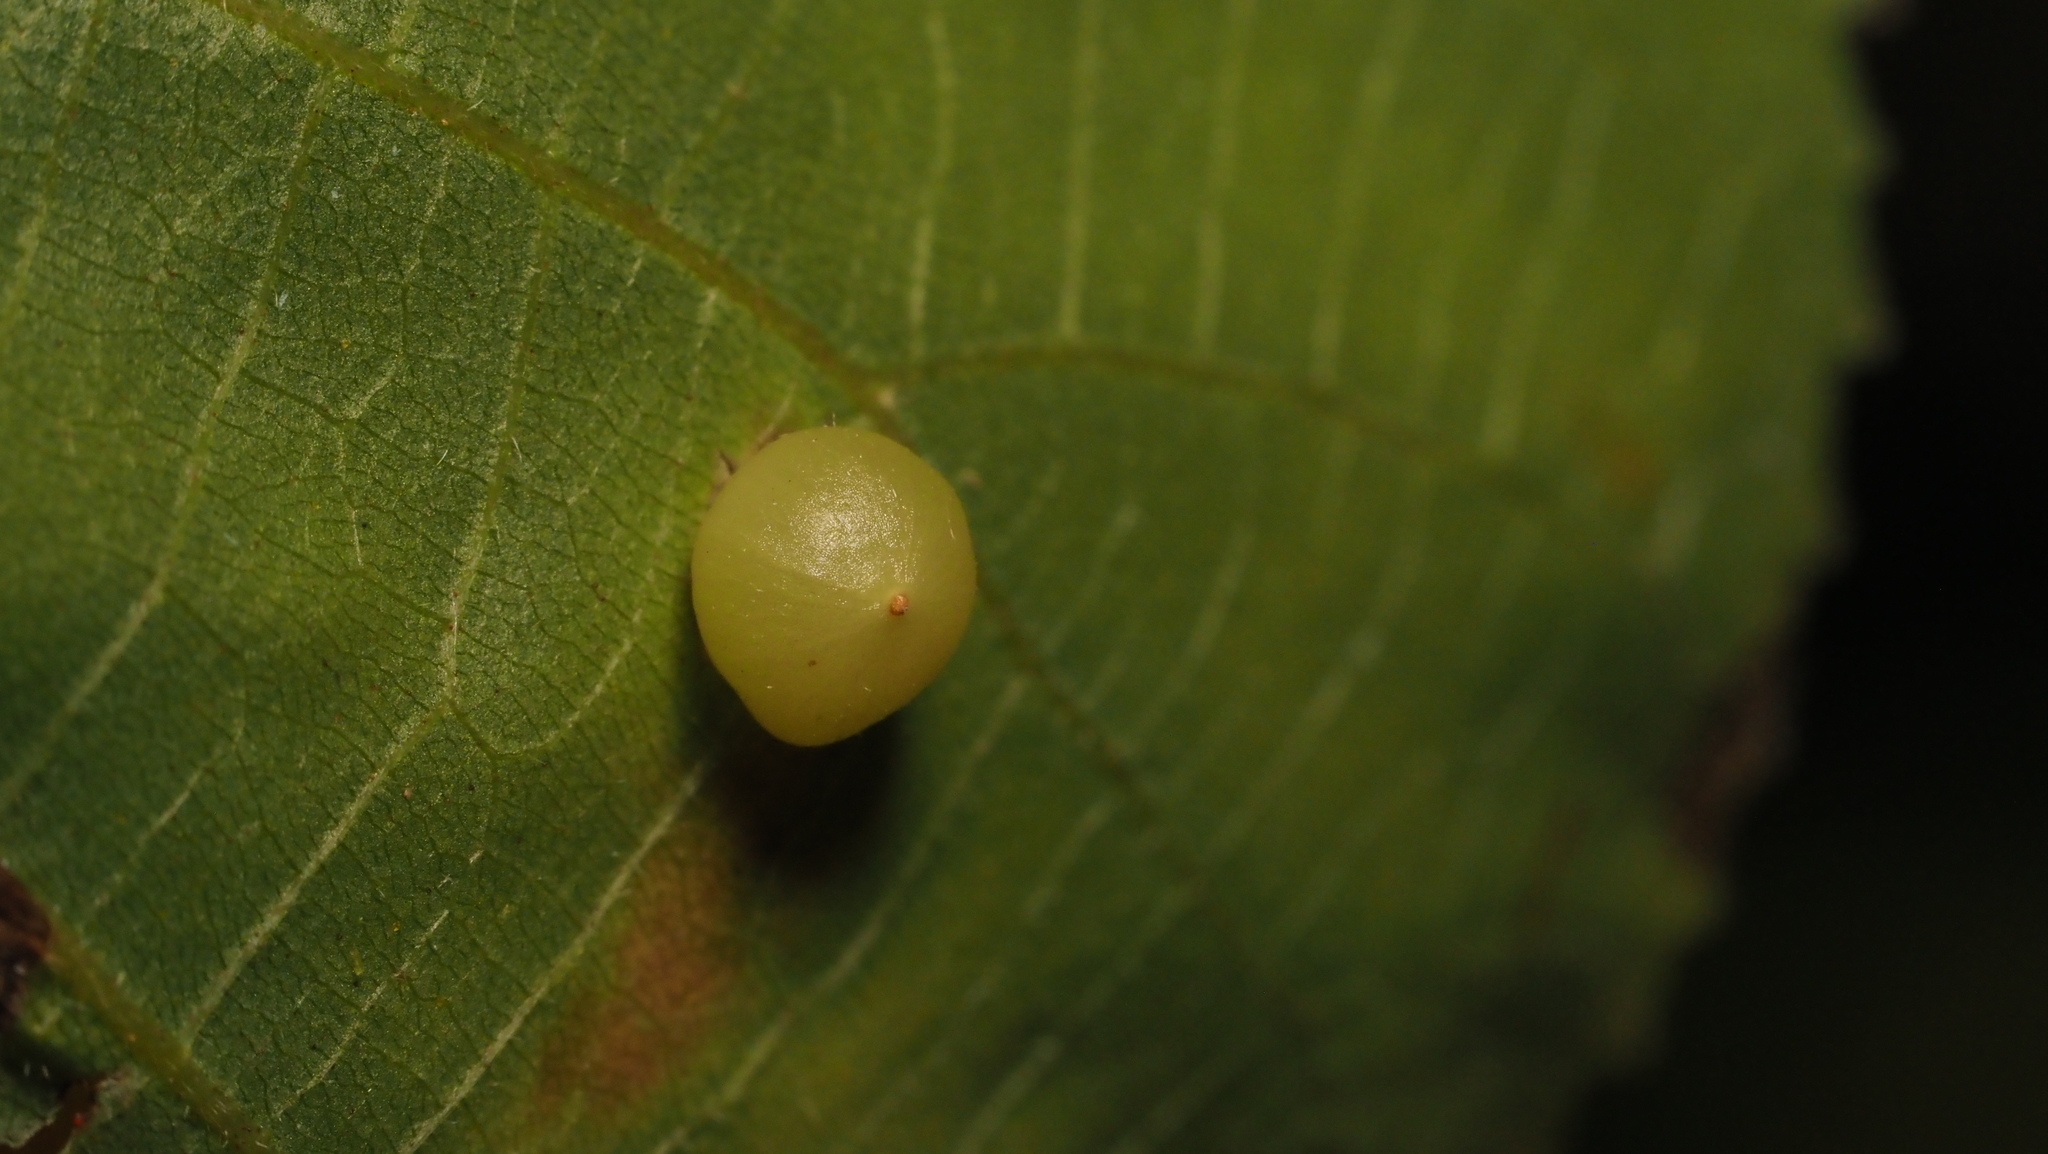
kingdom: Animalia
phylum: Arthropoda
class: Insecta
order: Diptera
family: Cecidomyiidae
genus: Caryomyia
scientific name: Caryomyia deflexipili
